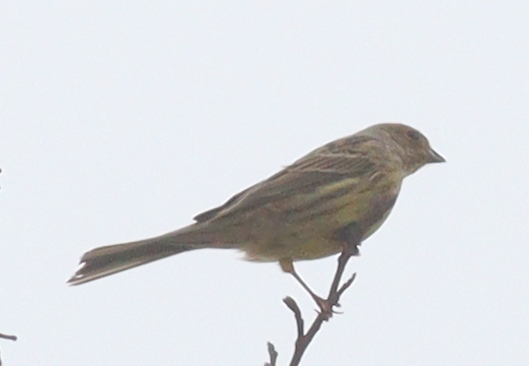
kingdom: Animalia
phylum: Chordata
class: Aves
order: Passeriformes
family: Emberizidae
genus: Emberiza
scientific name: Emberiza citrinella
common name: Yellowhammer
